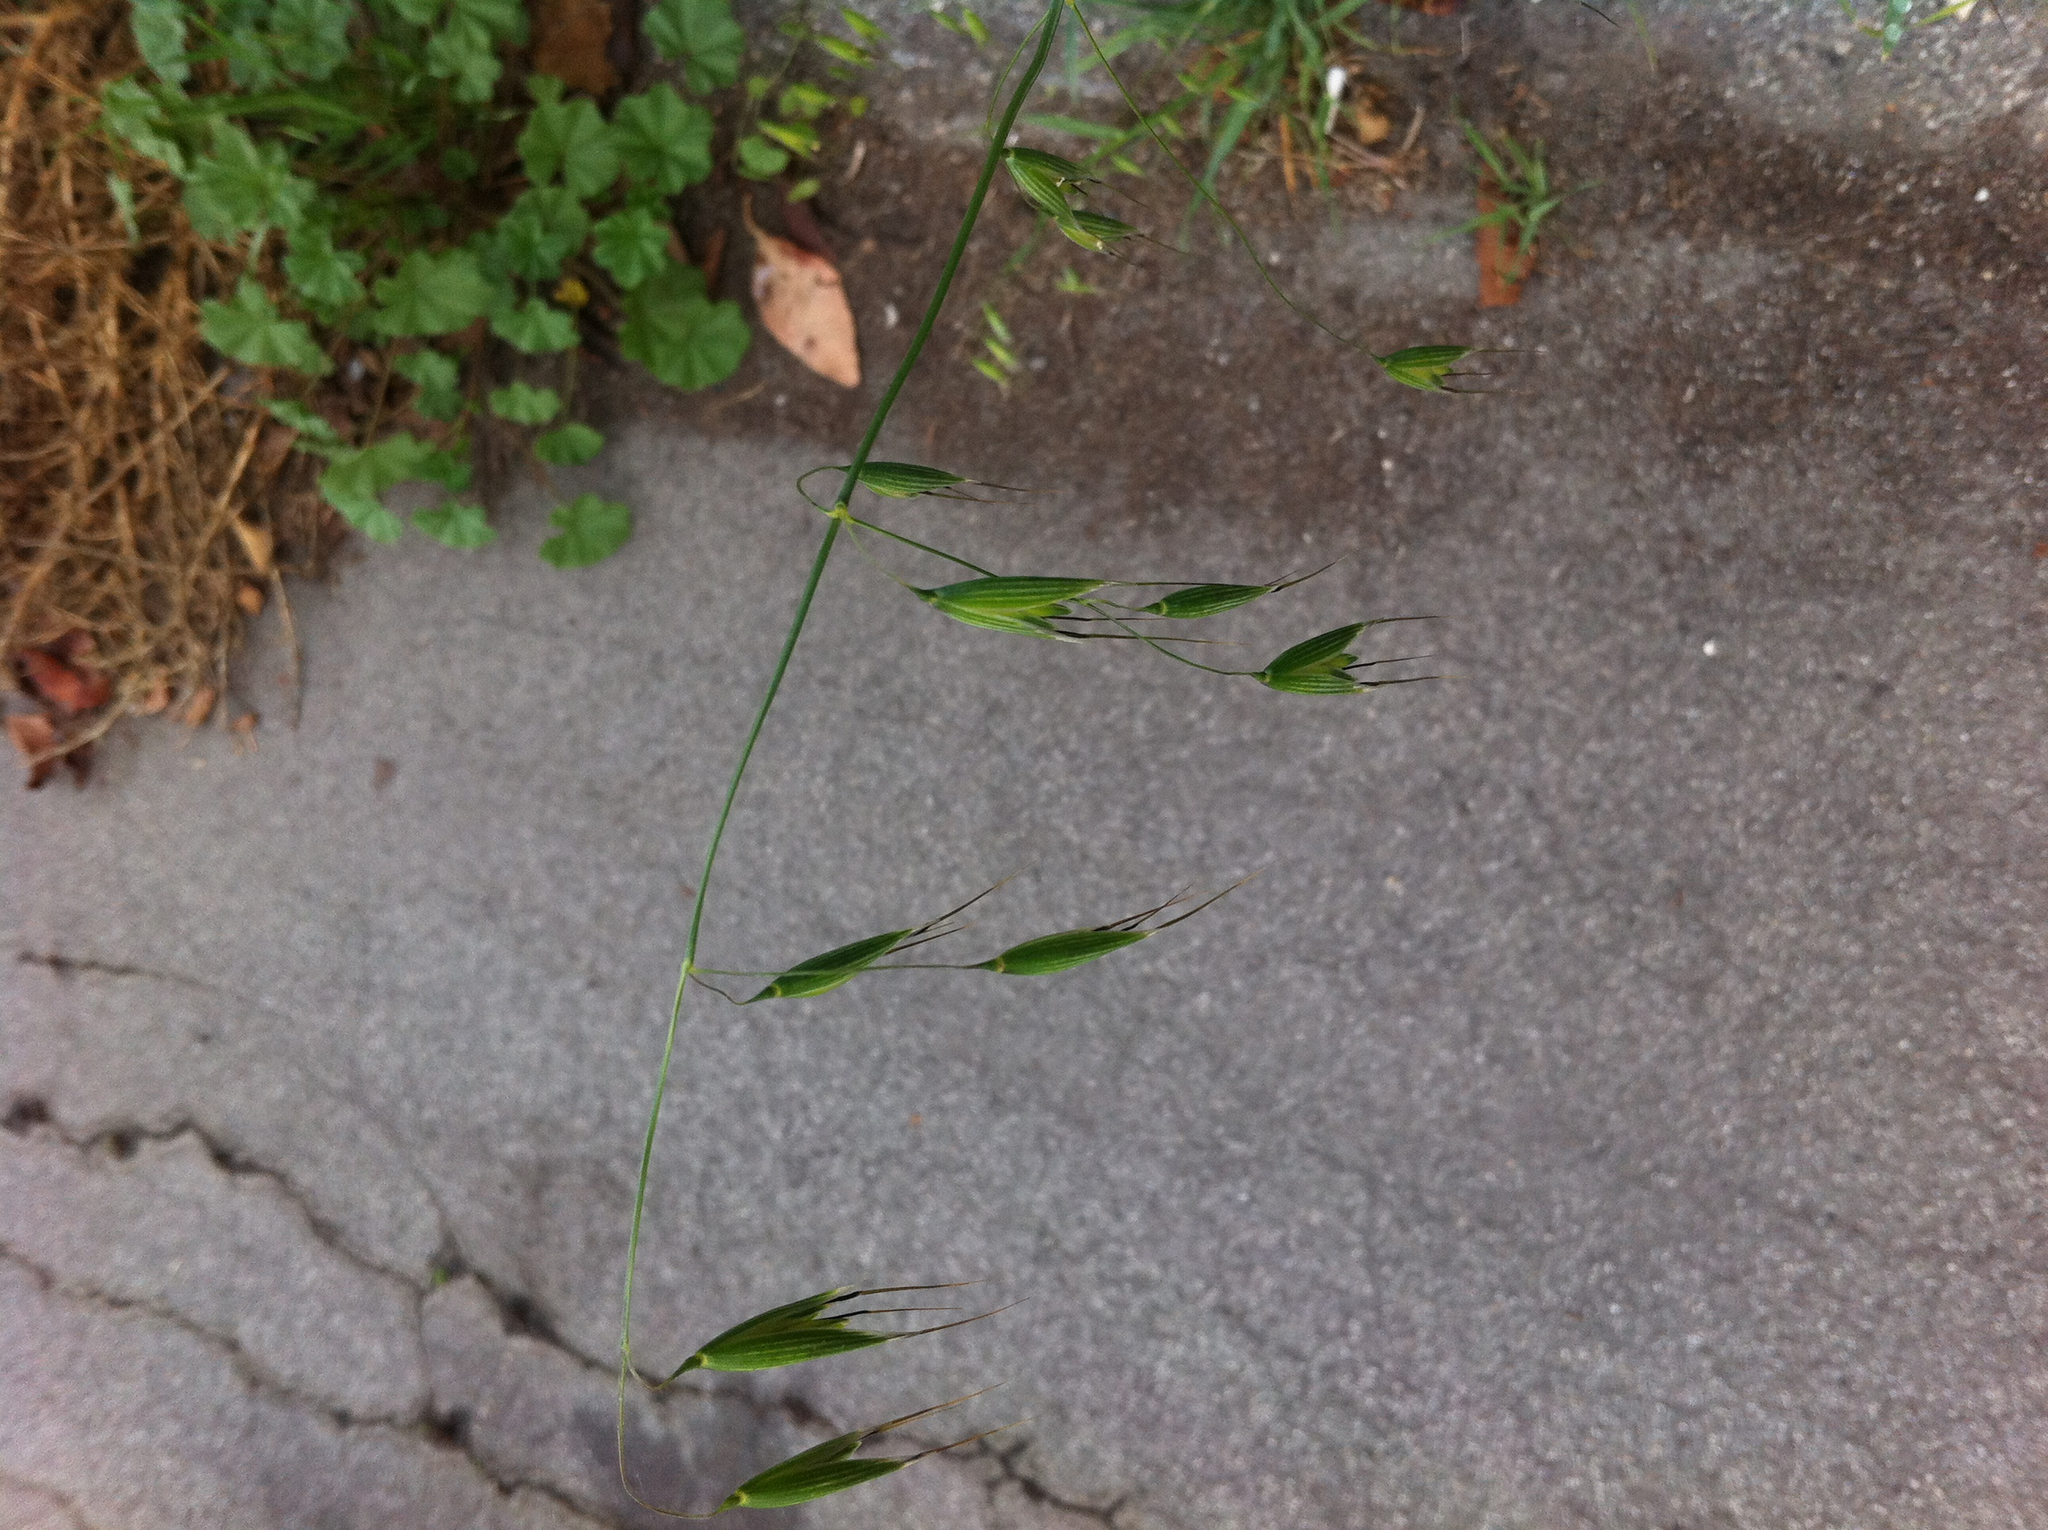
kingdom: Plantae
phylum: Tracheophyta
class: Liliopsida
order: Poales
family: Poaceae
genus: Avena
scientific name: Avena fatua
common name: Wild oat
